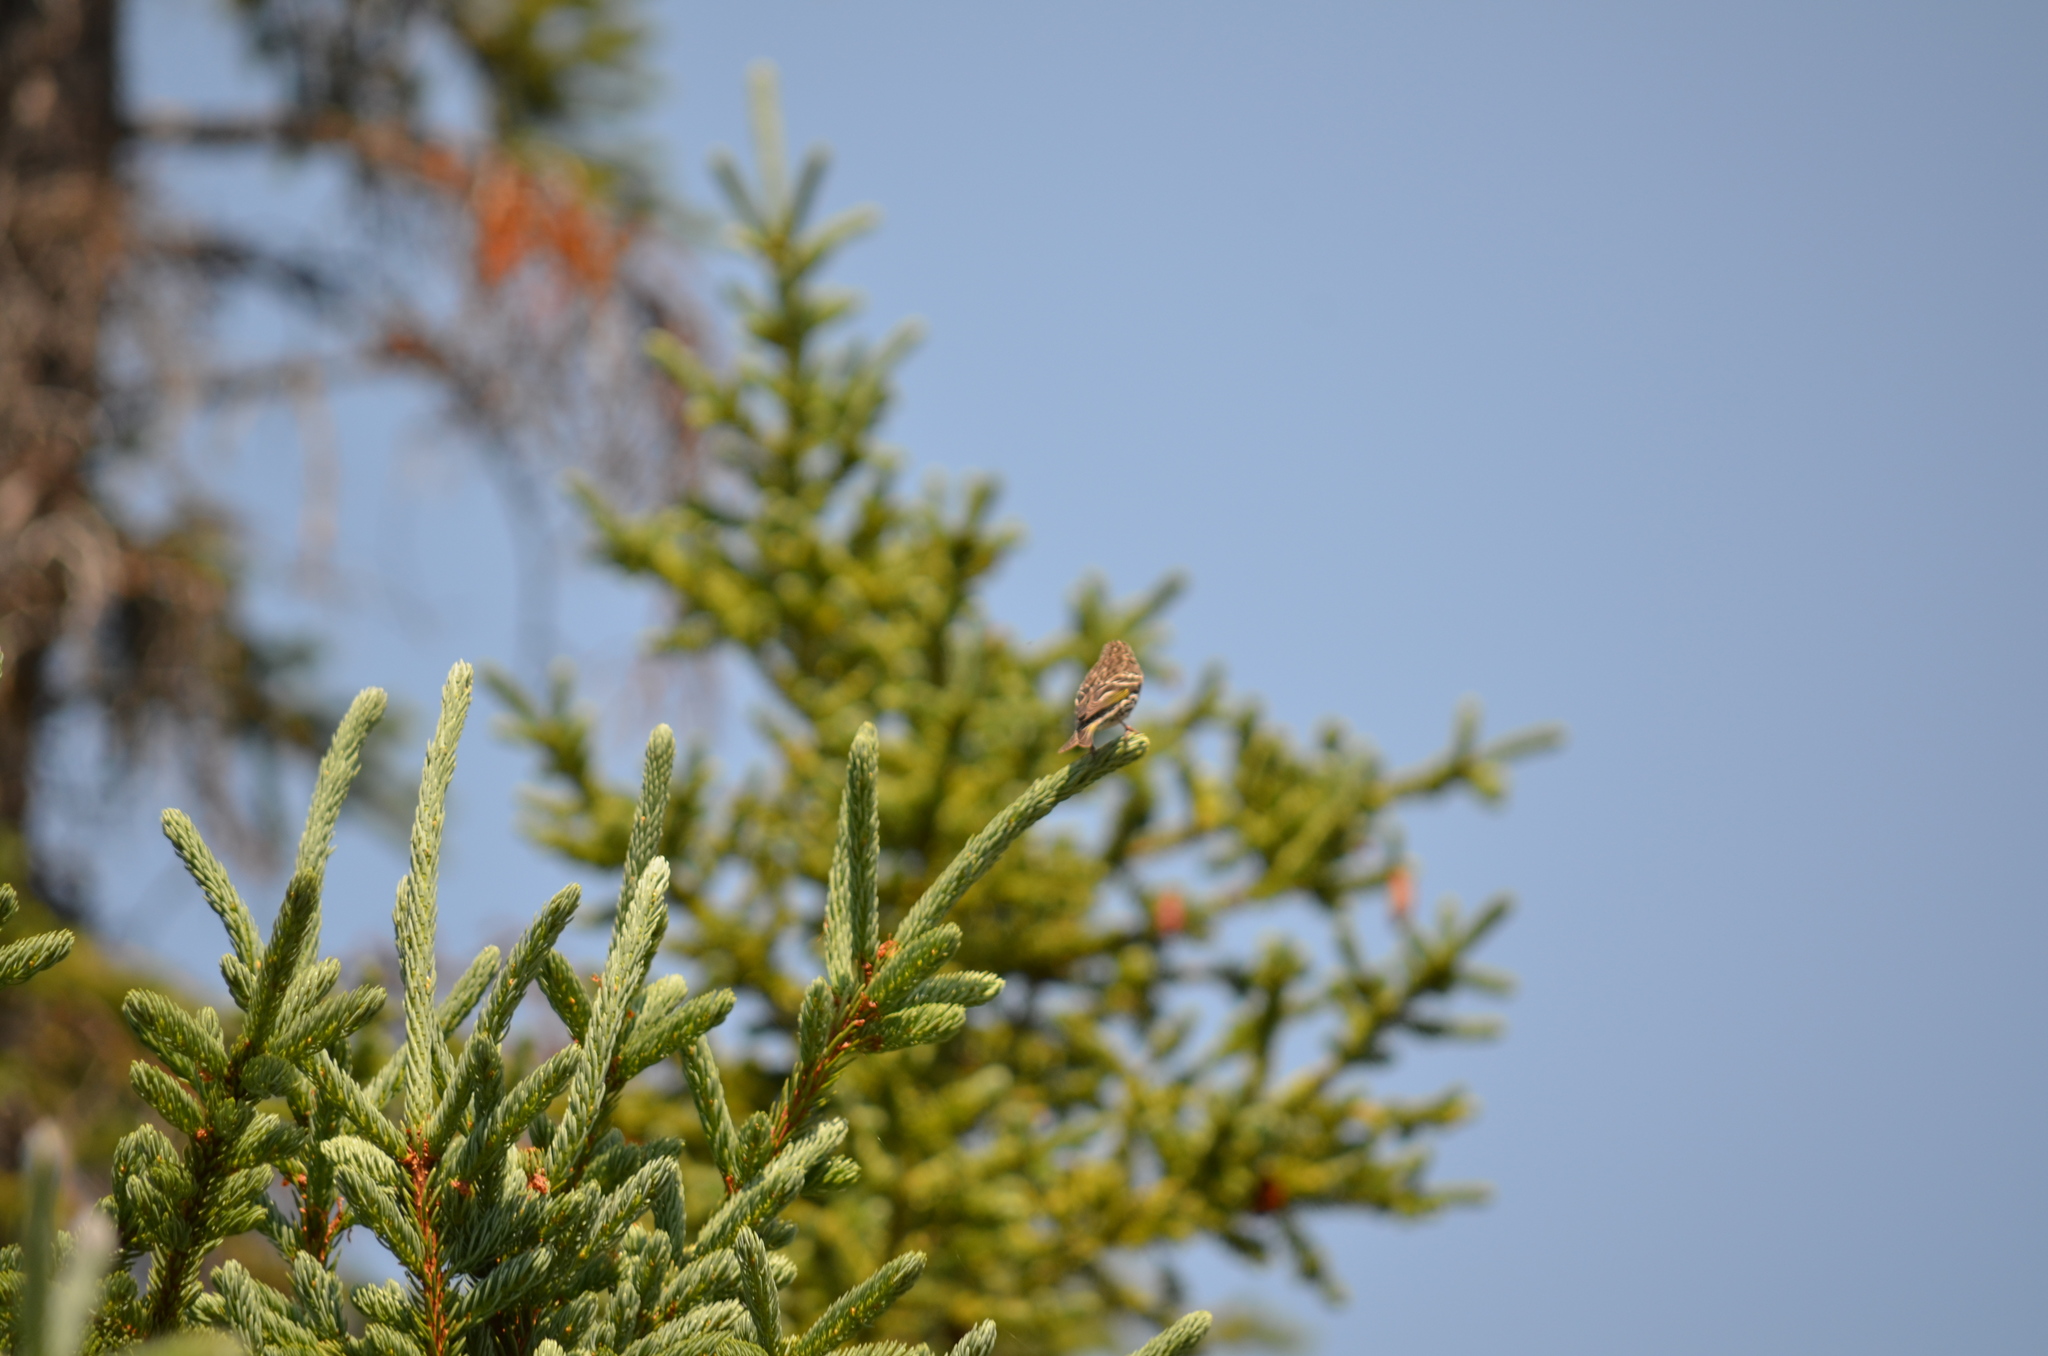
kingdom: Animalia
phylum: Chordata
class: Aves
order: Passeriformes
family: Fringillidae
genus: Spinus
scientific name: Spinus pinus
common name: Pine siskin
